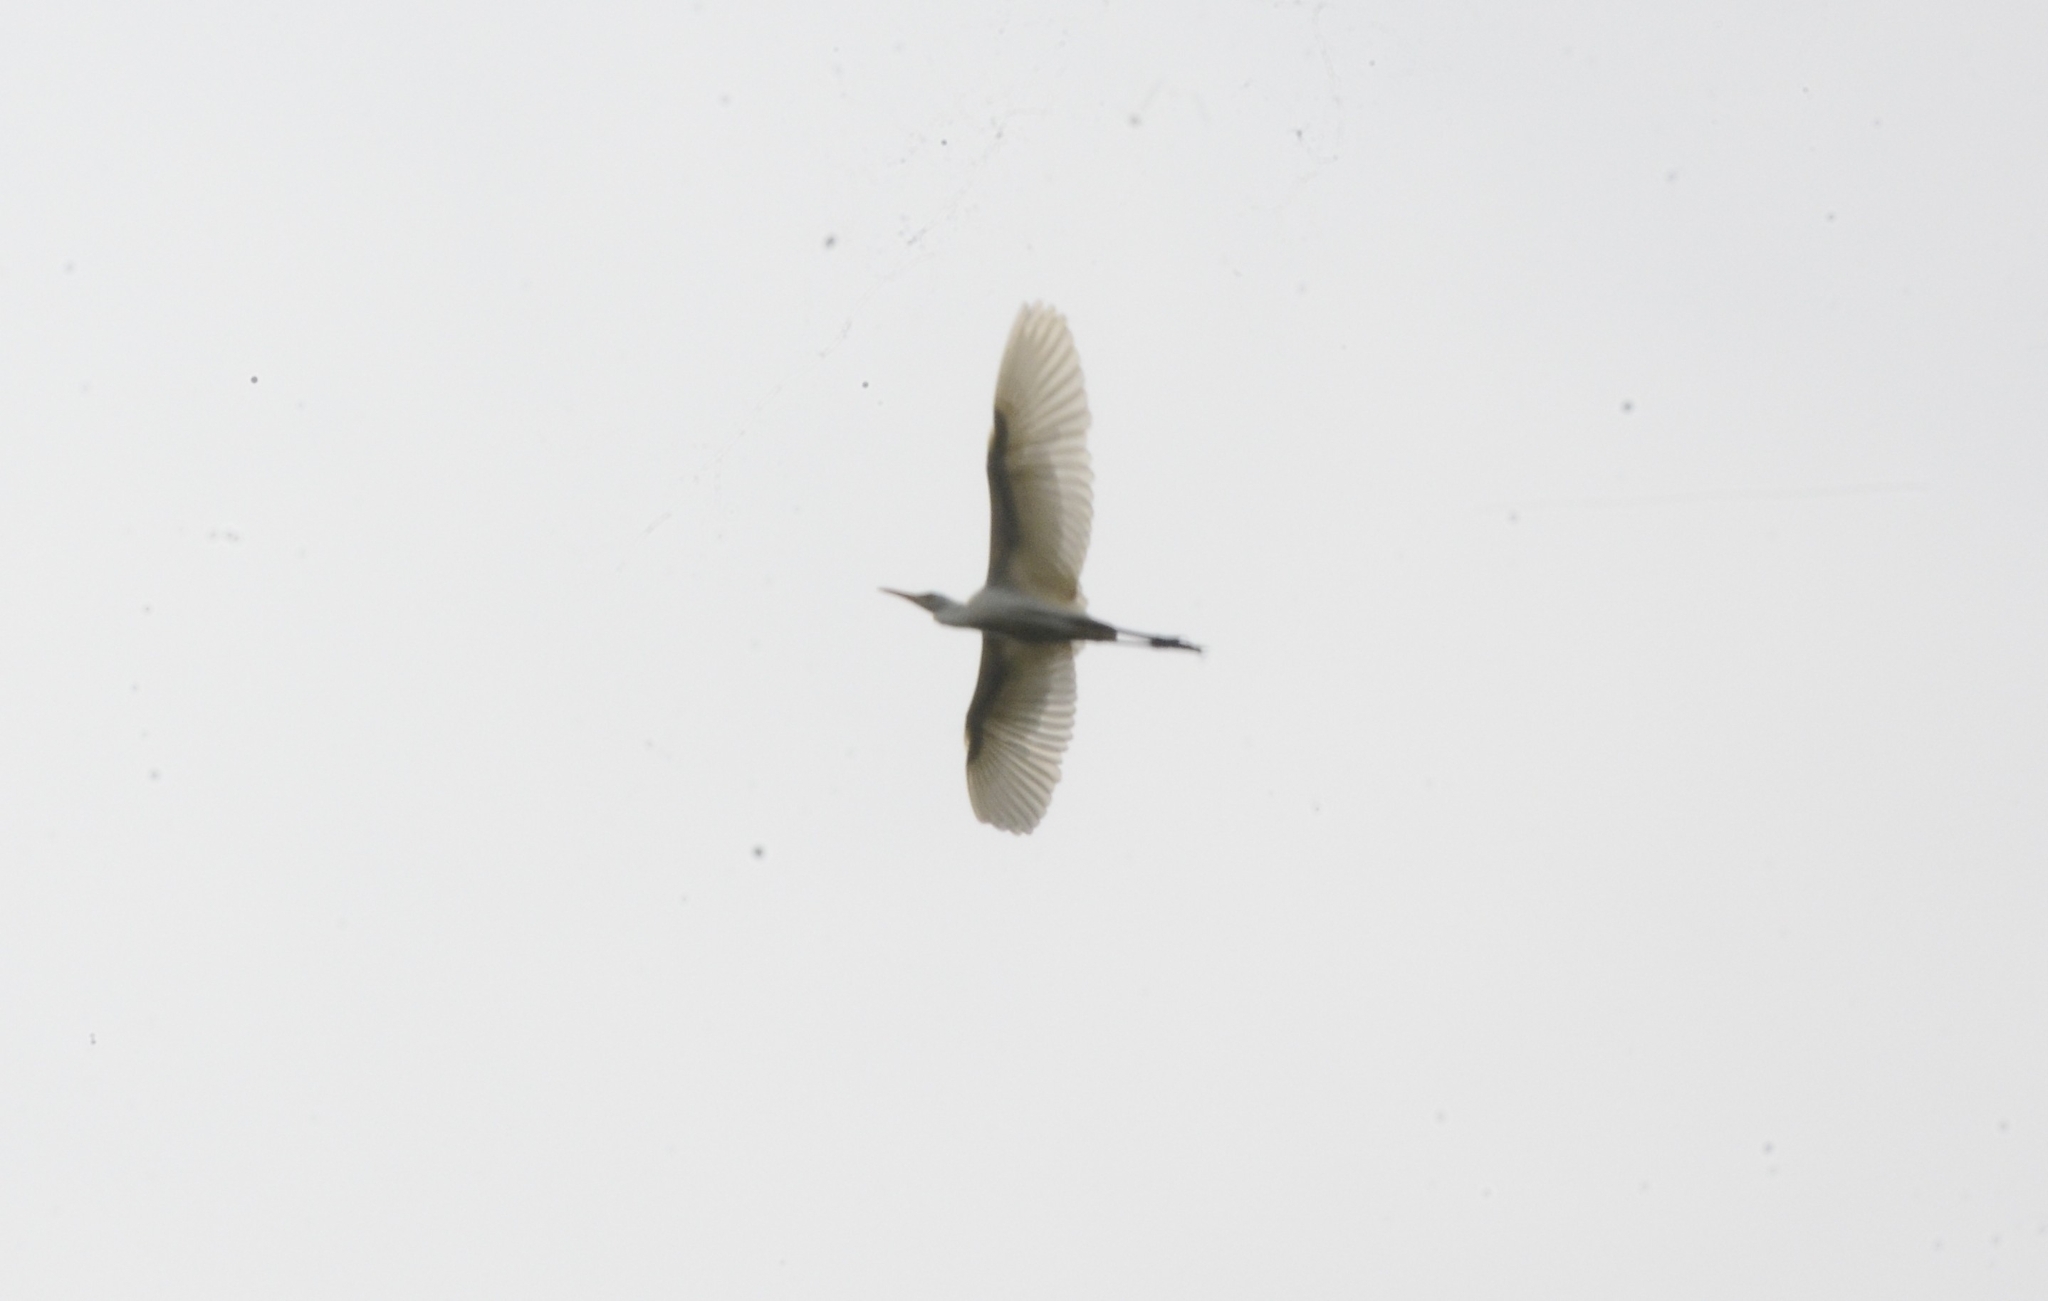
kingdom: Animalia
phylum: Chordata
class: Aves
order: Pelecaniformes
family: Ardeidae
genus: Bubulcus
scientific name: Bubulcus coromandus
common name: Eastern cattle egret
